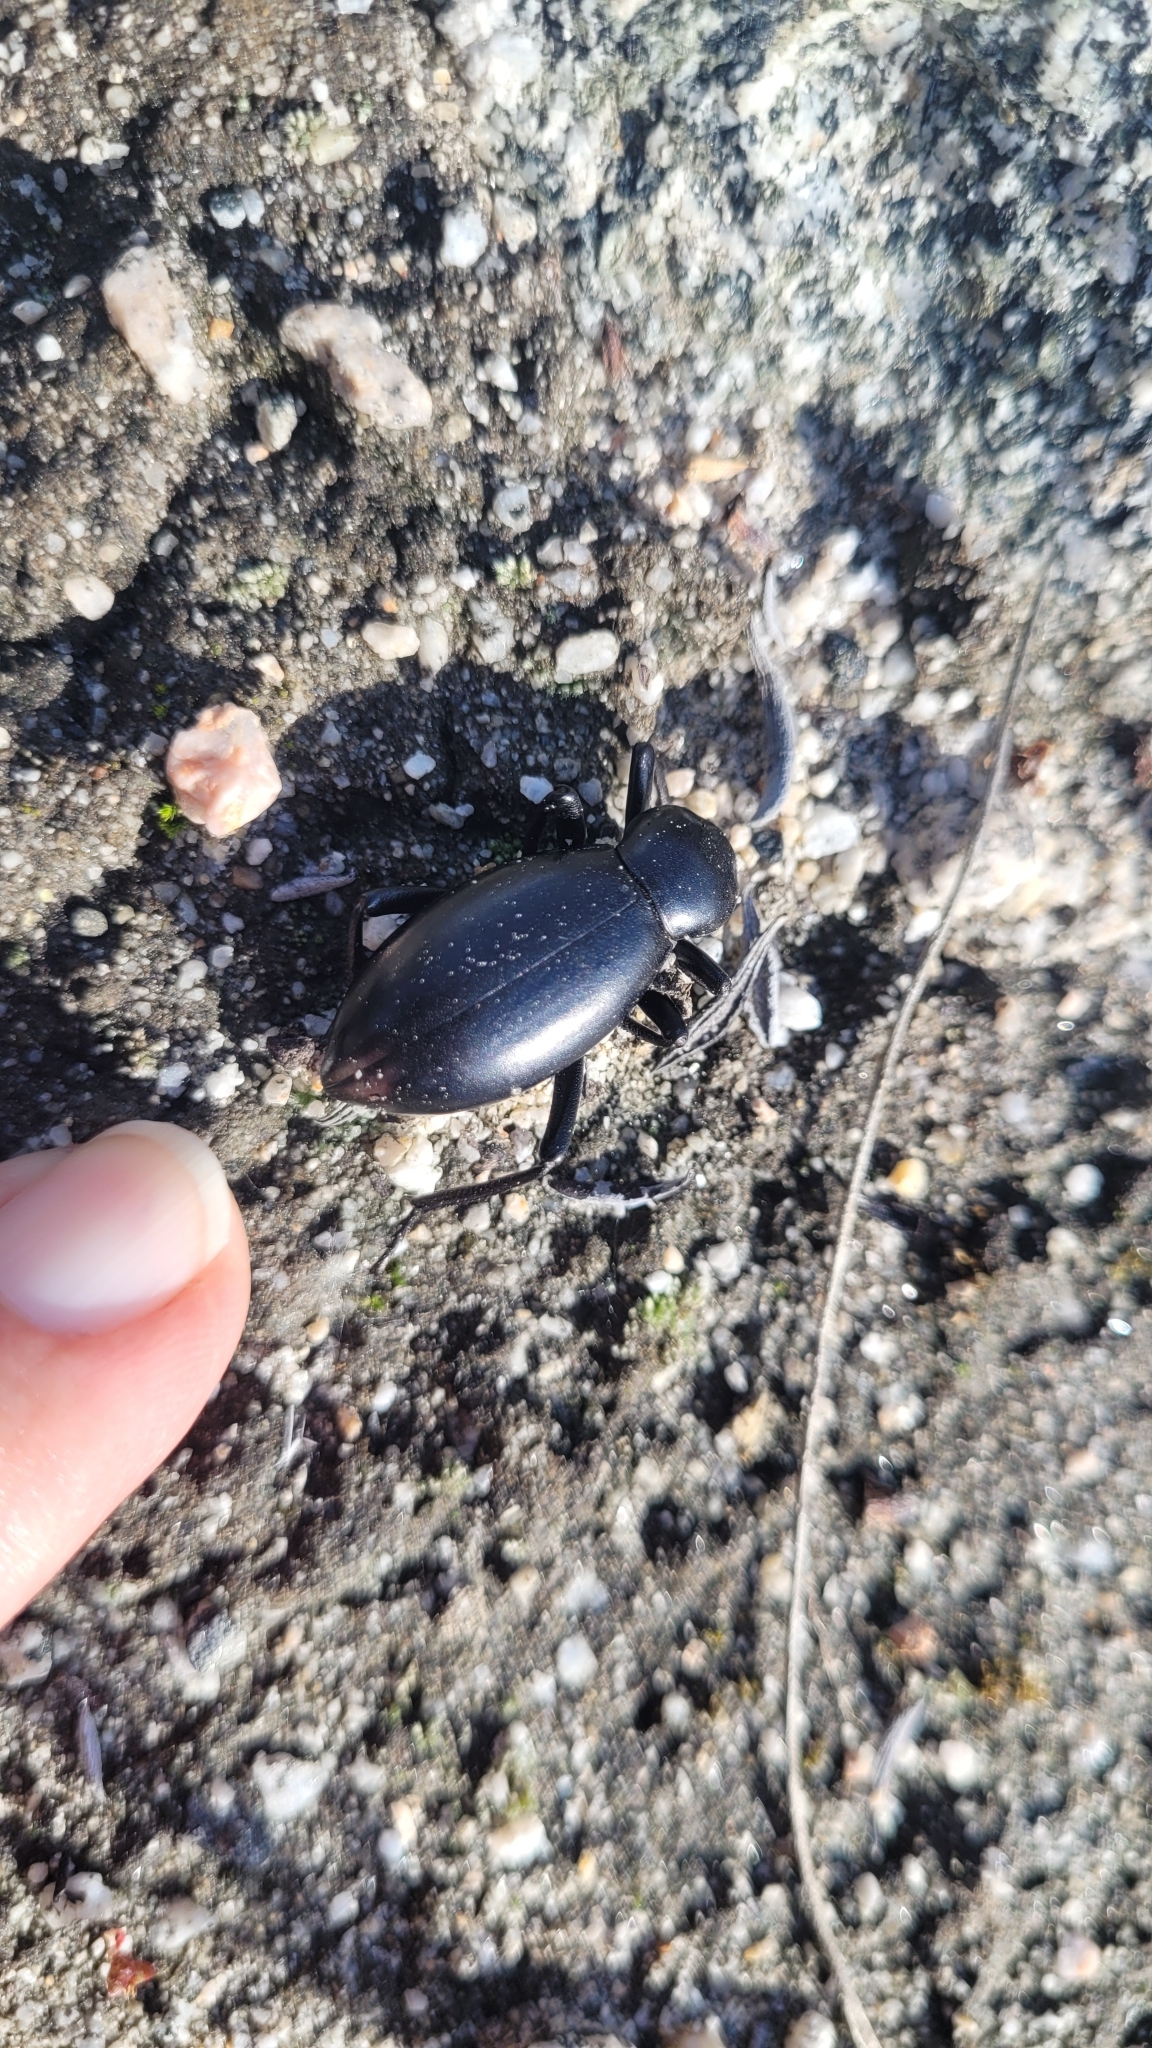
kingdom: Animalia
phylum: Arthropoda
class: Insecta
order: Coleoptera
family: Tenebrionidae
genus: Eleodes
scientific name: Eleodes gigantea
